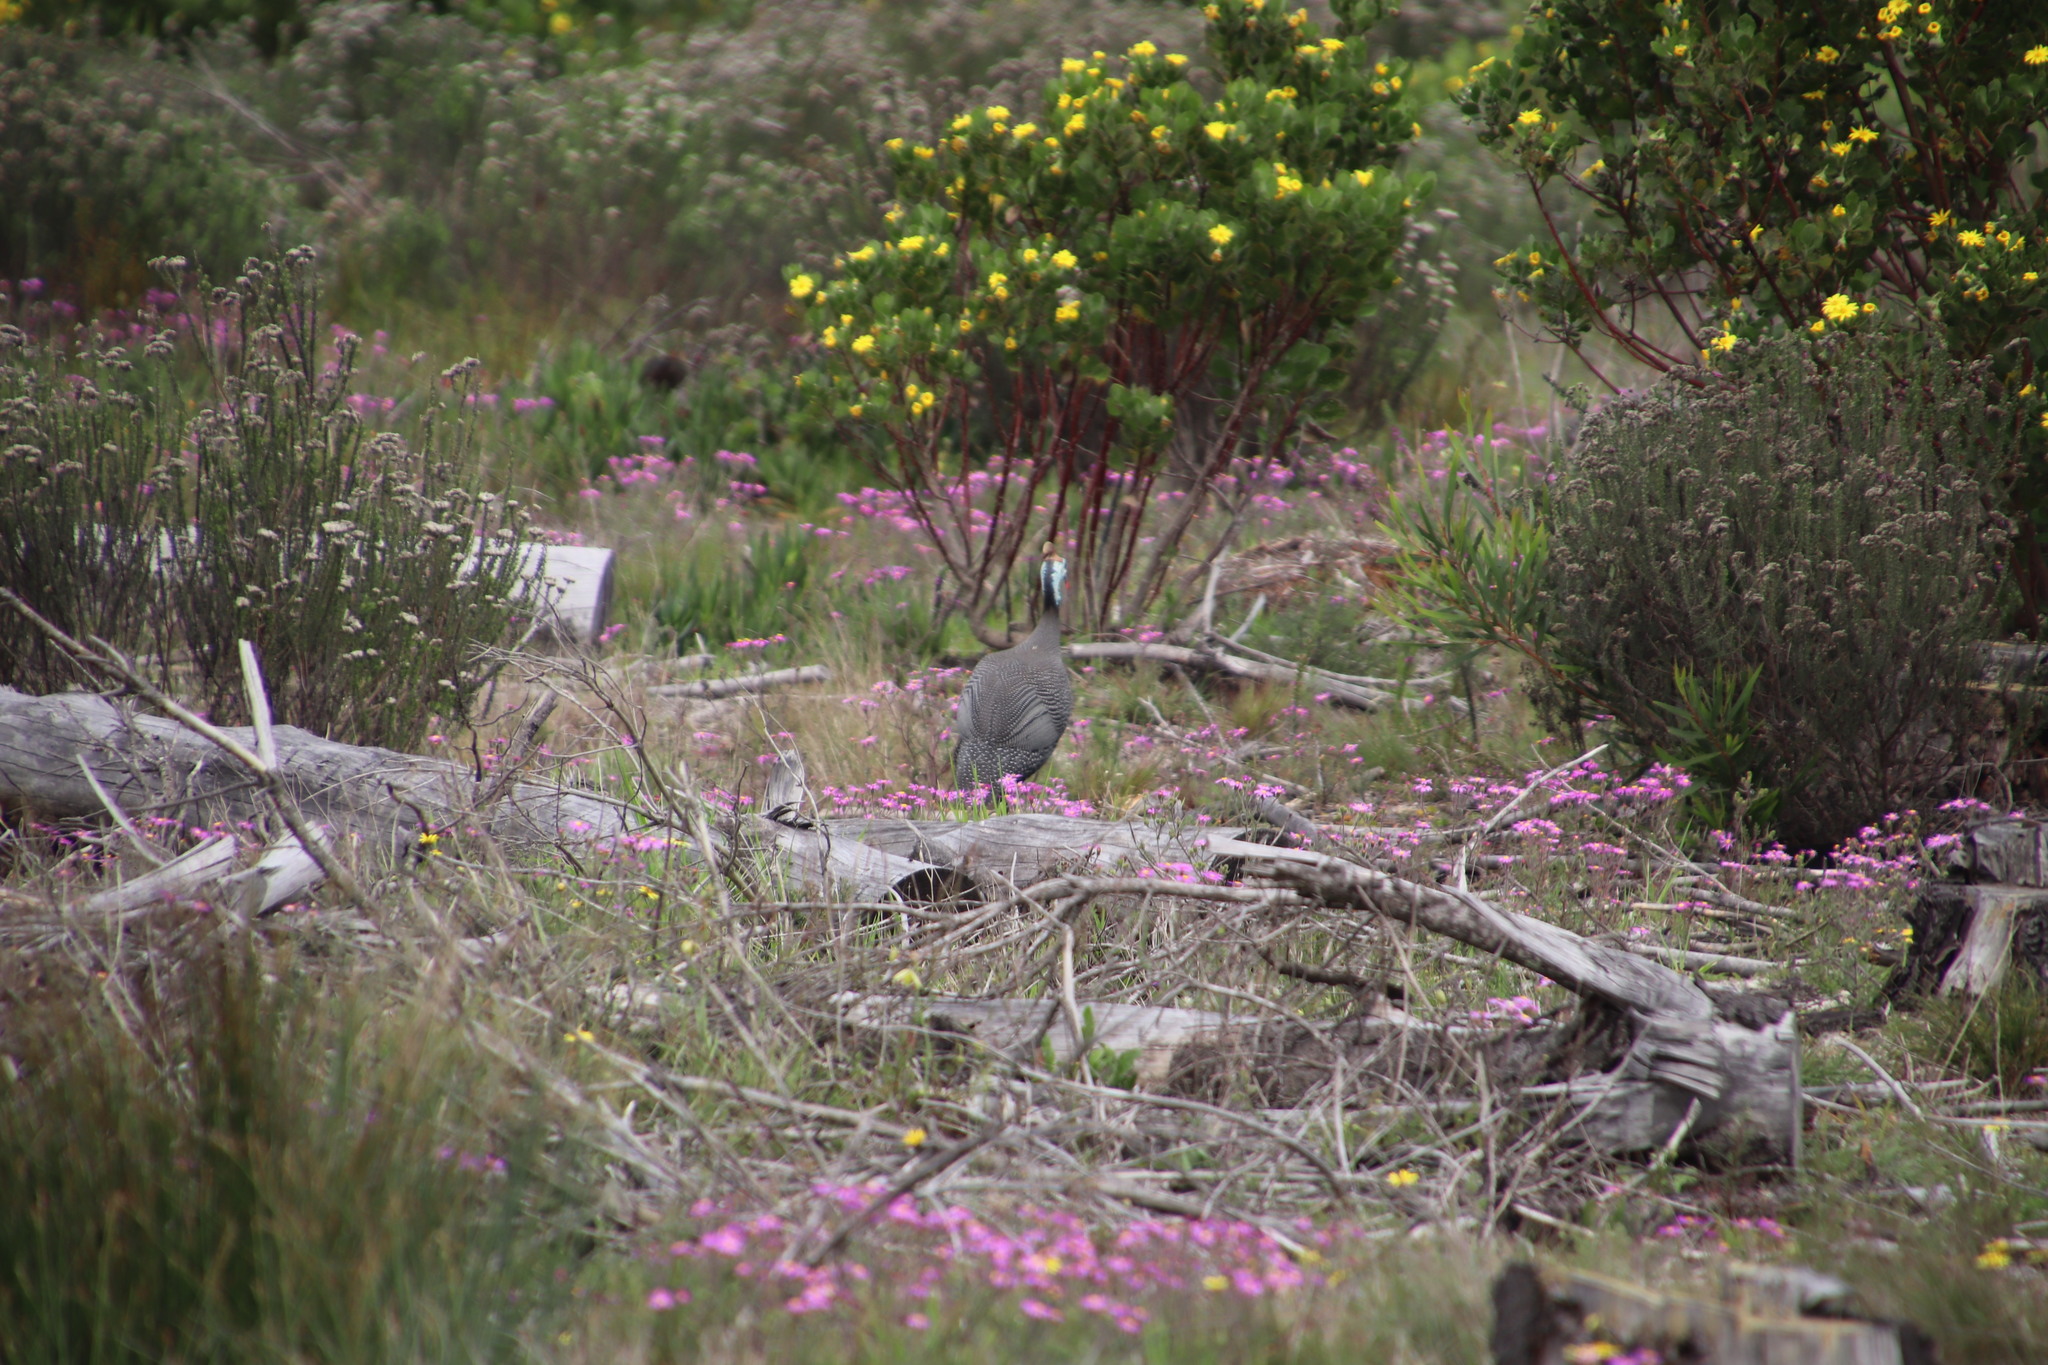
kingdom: Animalia
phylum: Chordata
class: Aves
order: Galliformes
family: Numididae
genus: Numida
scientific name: Numida meleagris
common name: Helmeted guineafowl
